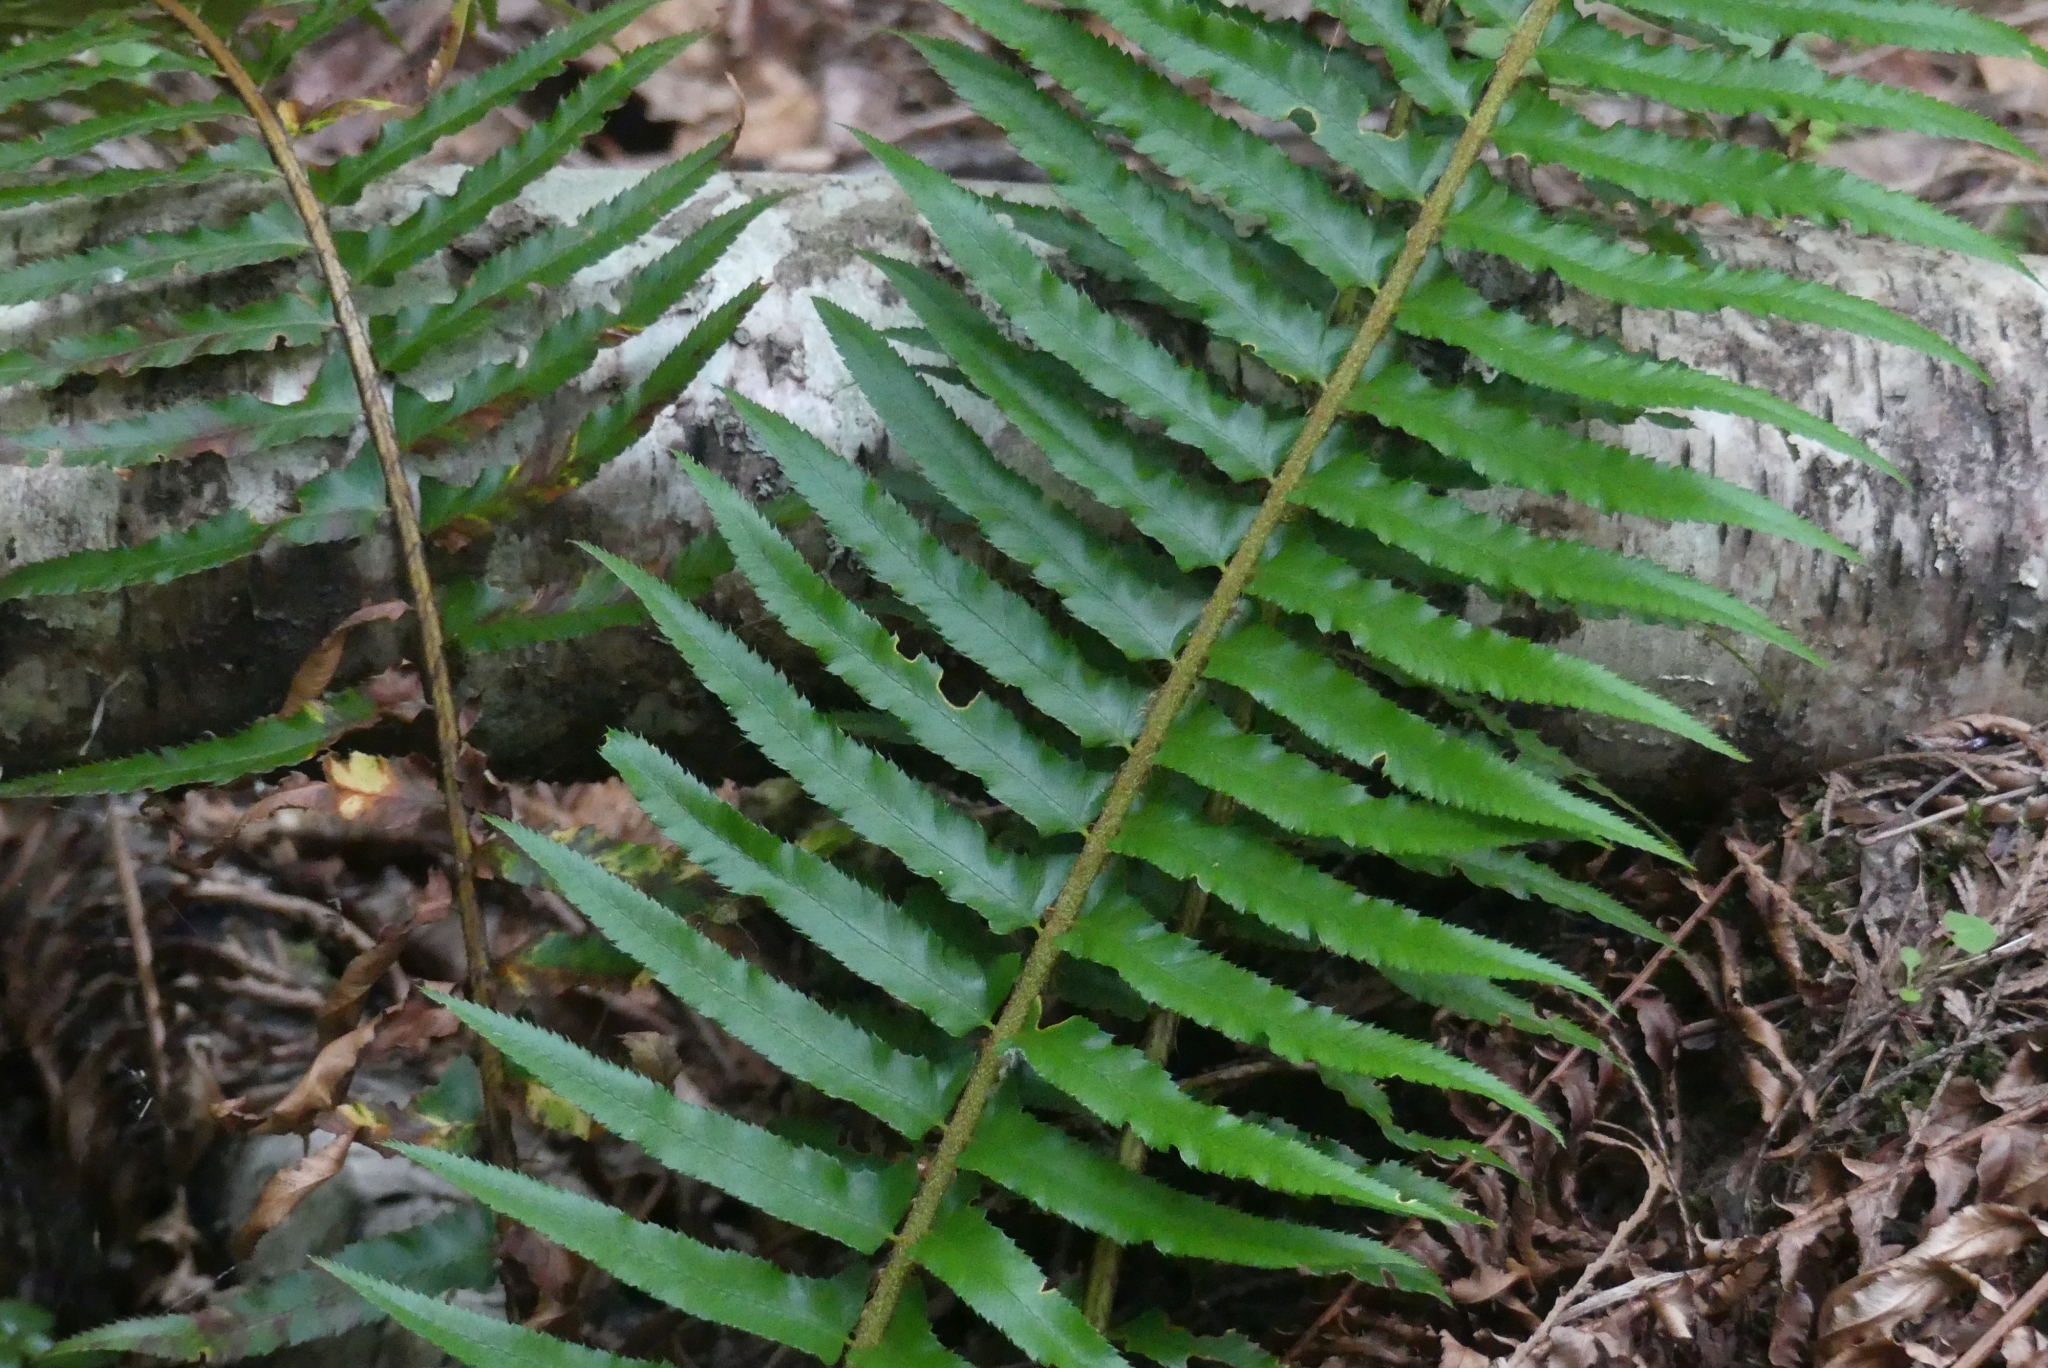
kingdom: Plantae
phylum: Tracheophyta
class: Polypodiopsida
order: Polypodiales
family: Dryopteridaceae
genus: Polystichum
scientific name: Polystichum munitum
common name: Western sword-fern
